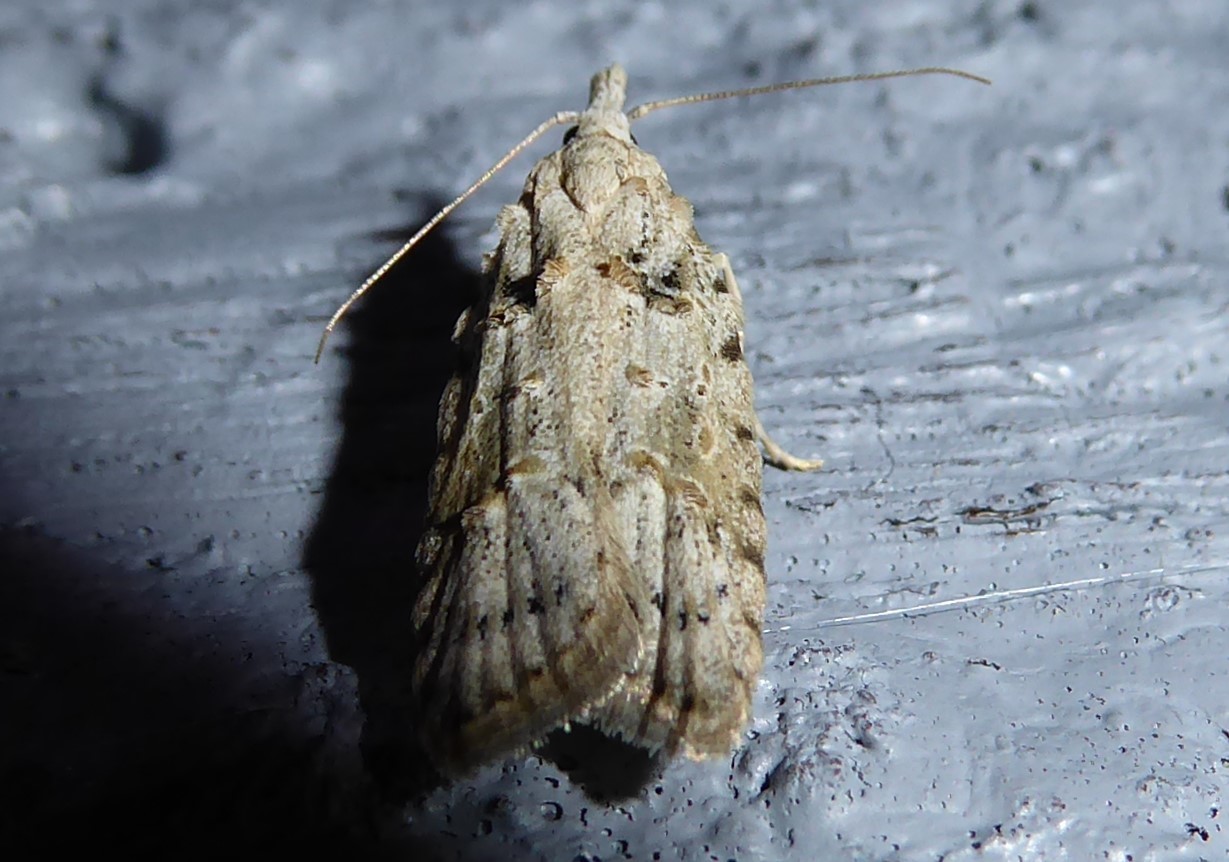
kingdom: Animalia
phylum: Arthropoda
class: Insecta
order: Lepidoptera
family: Carposinidae
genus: Carposina
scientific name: Carposina
